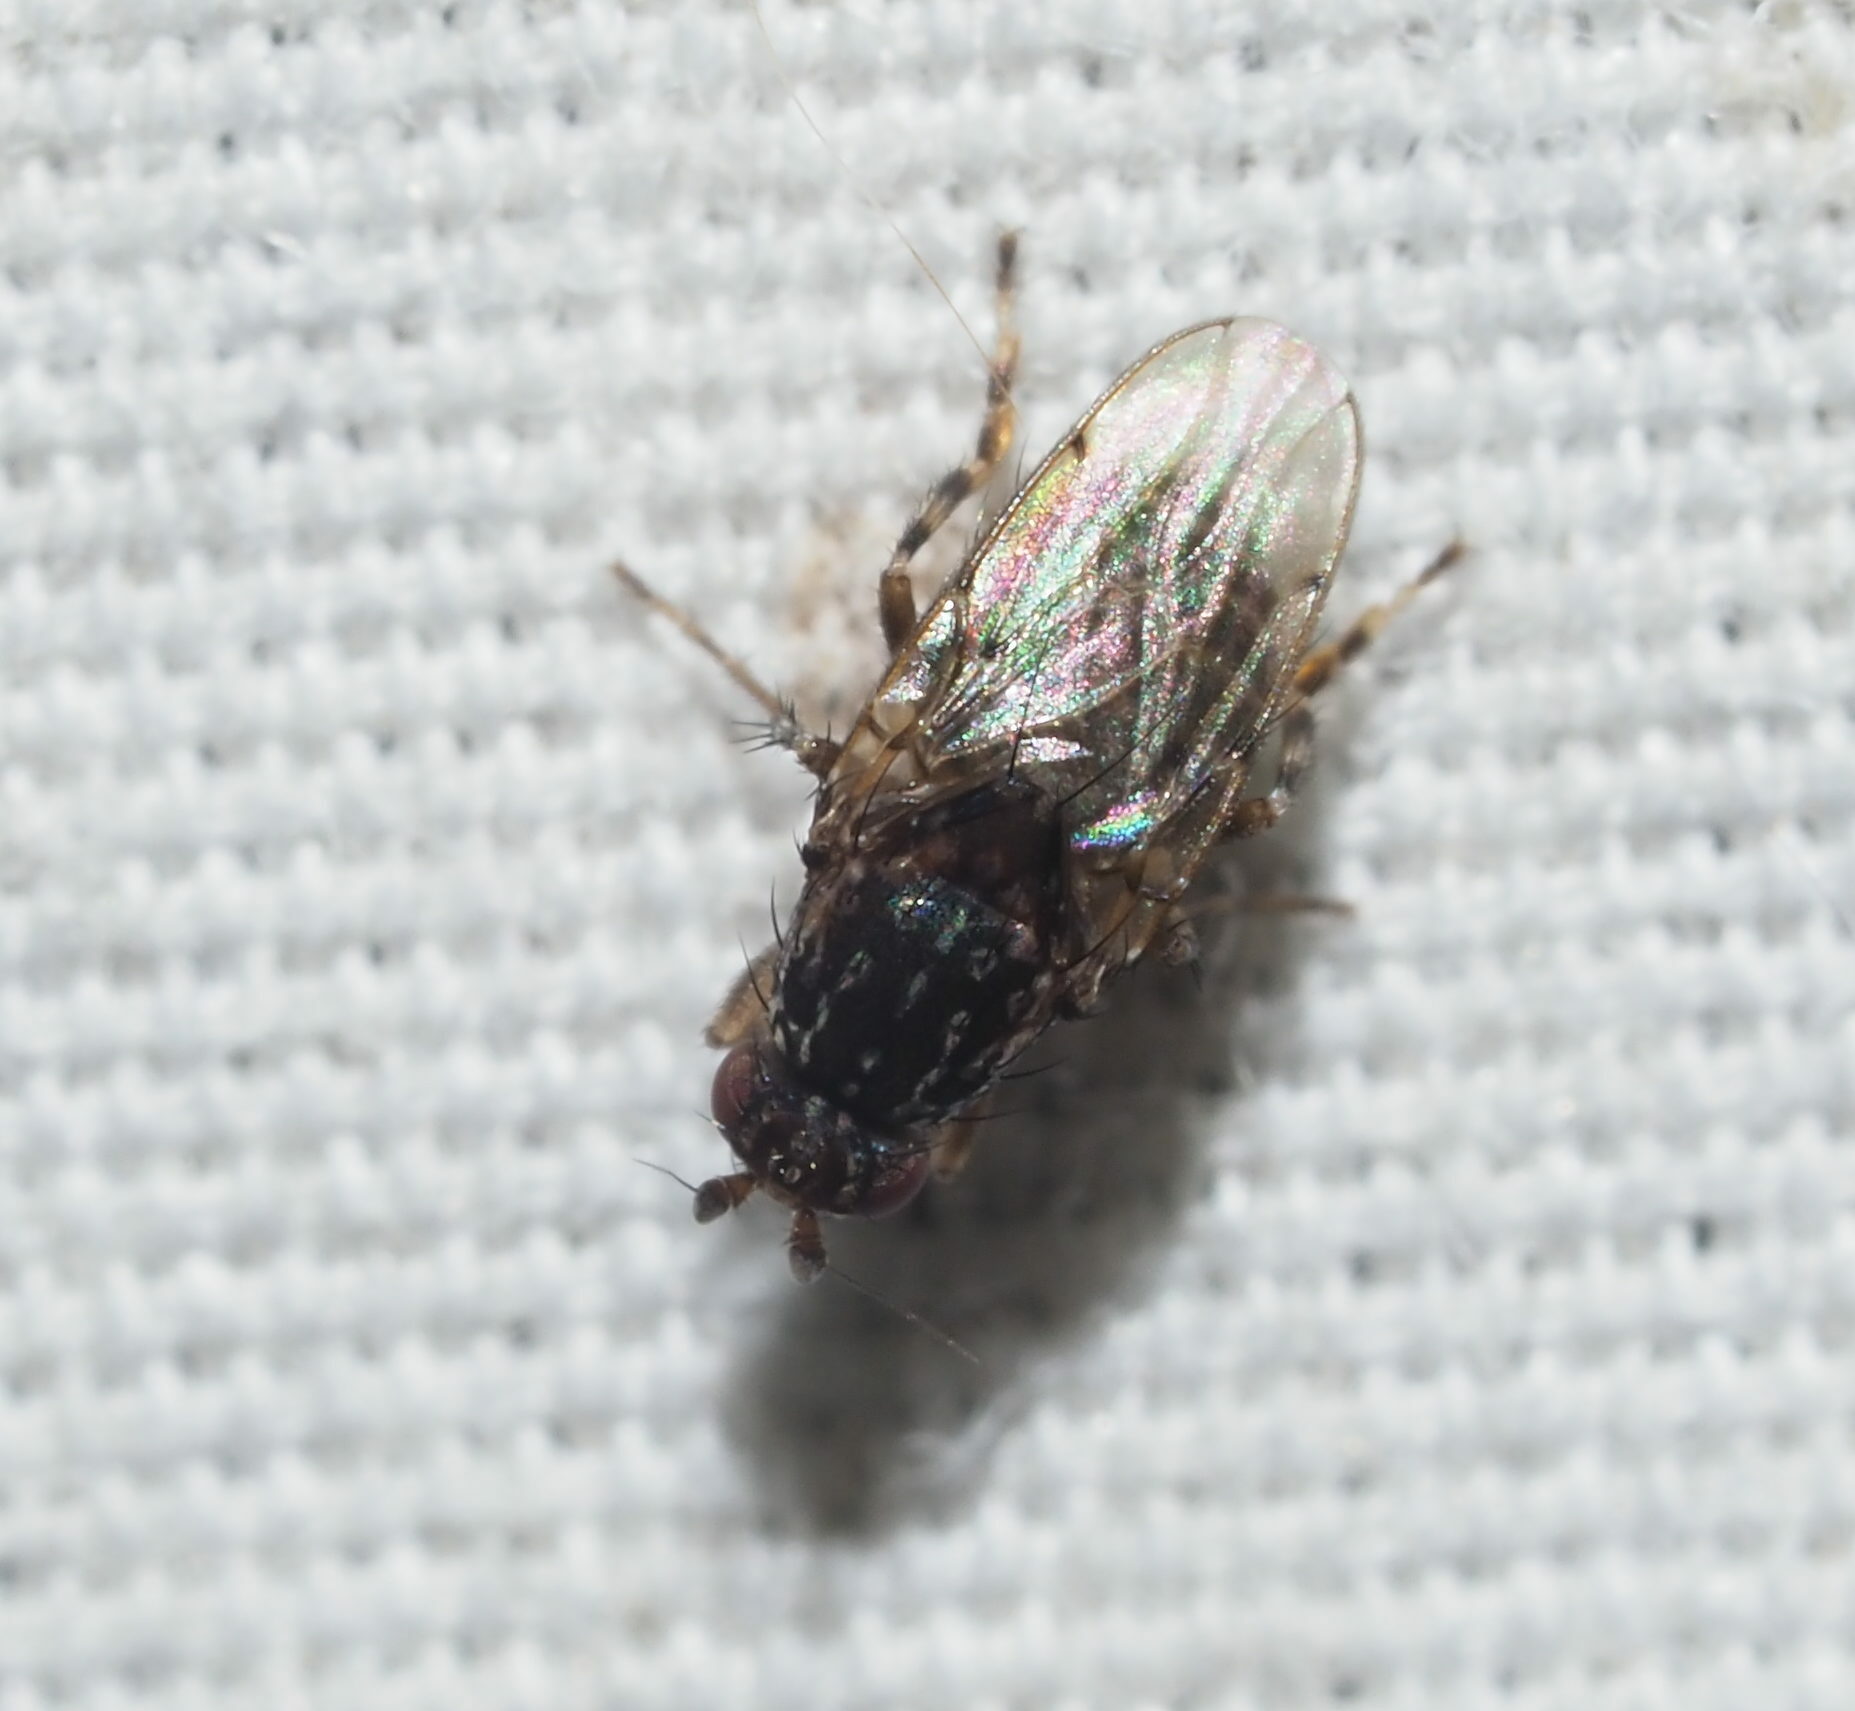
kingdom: Animalia
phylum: Arthropoda
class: Insecta
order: Diptera
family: Sphaeroceridae
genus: Poecilosomella
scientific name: Poecilosomella punctipennis
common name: Dung fly
